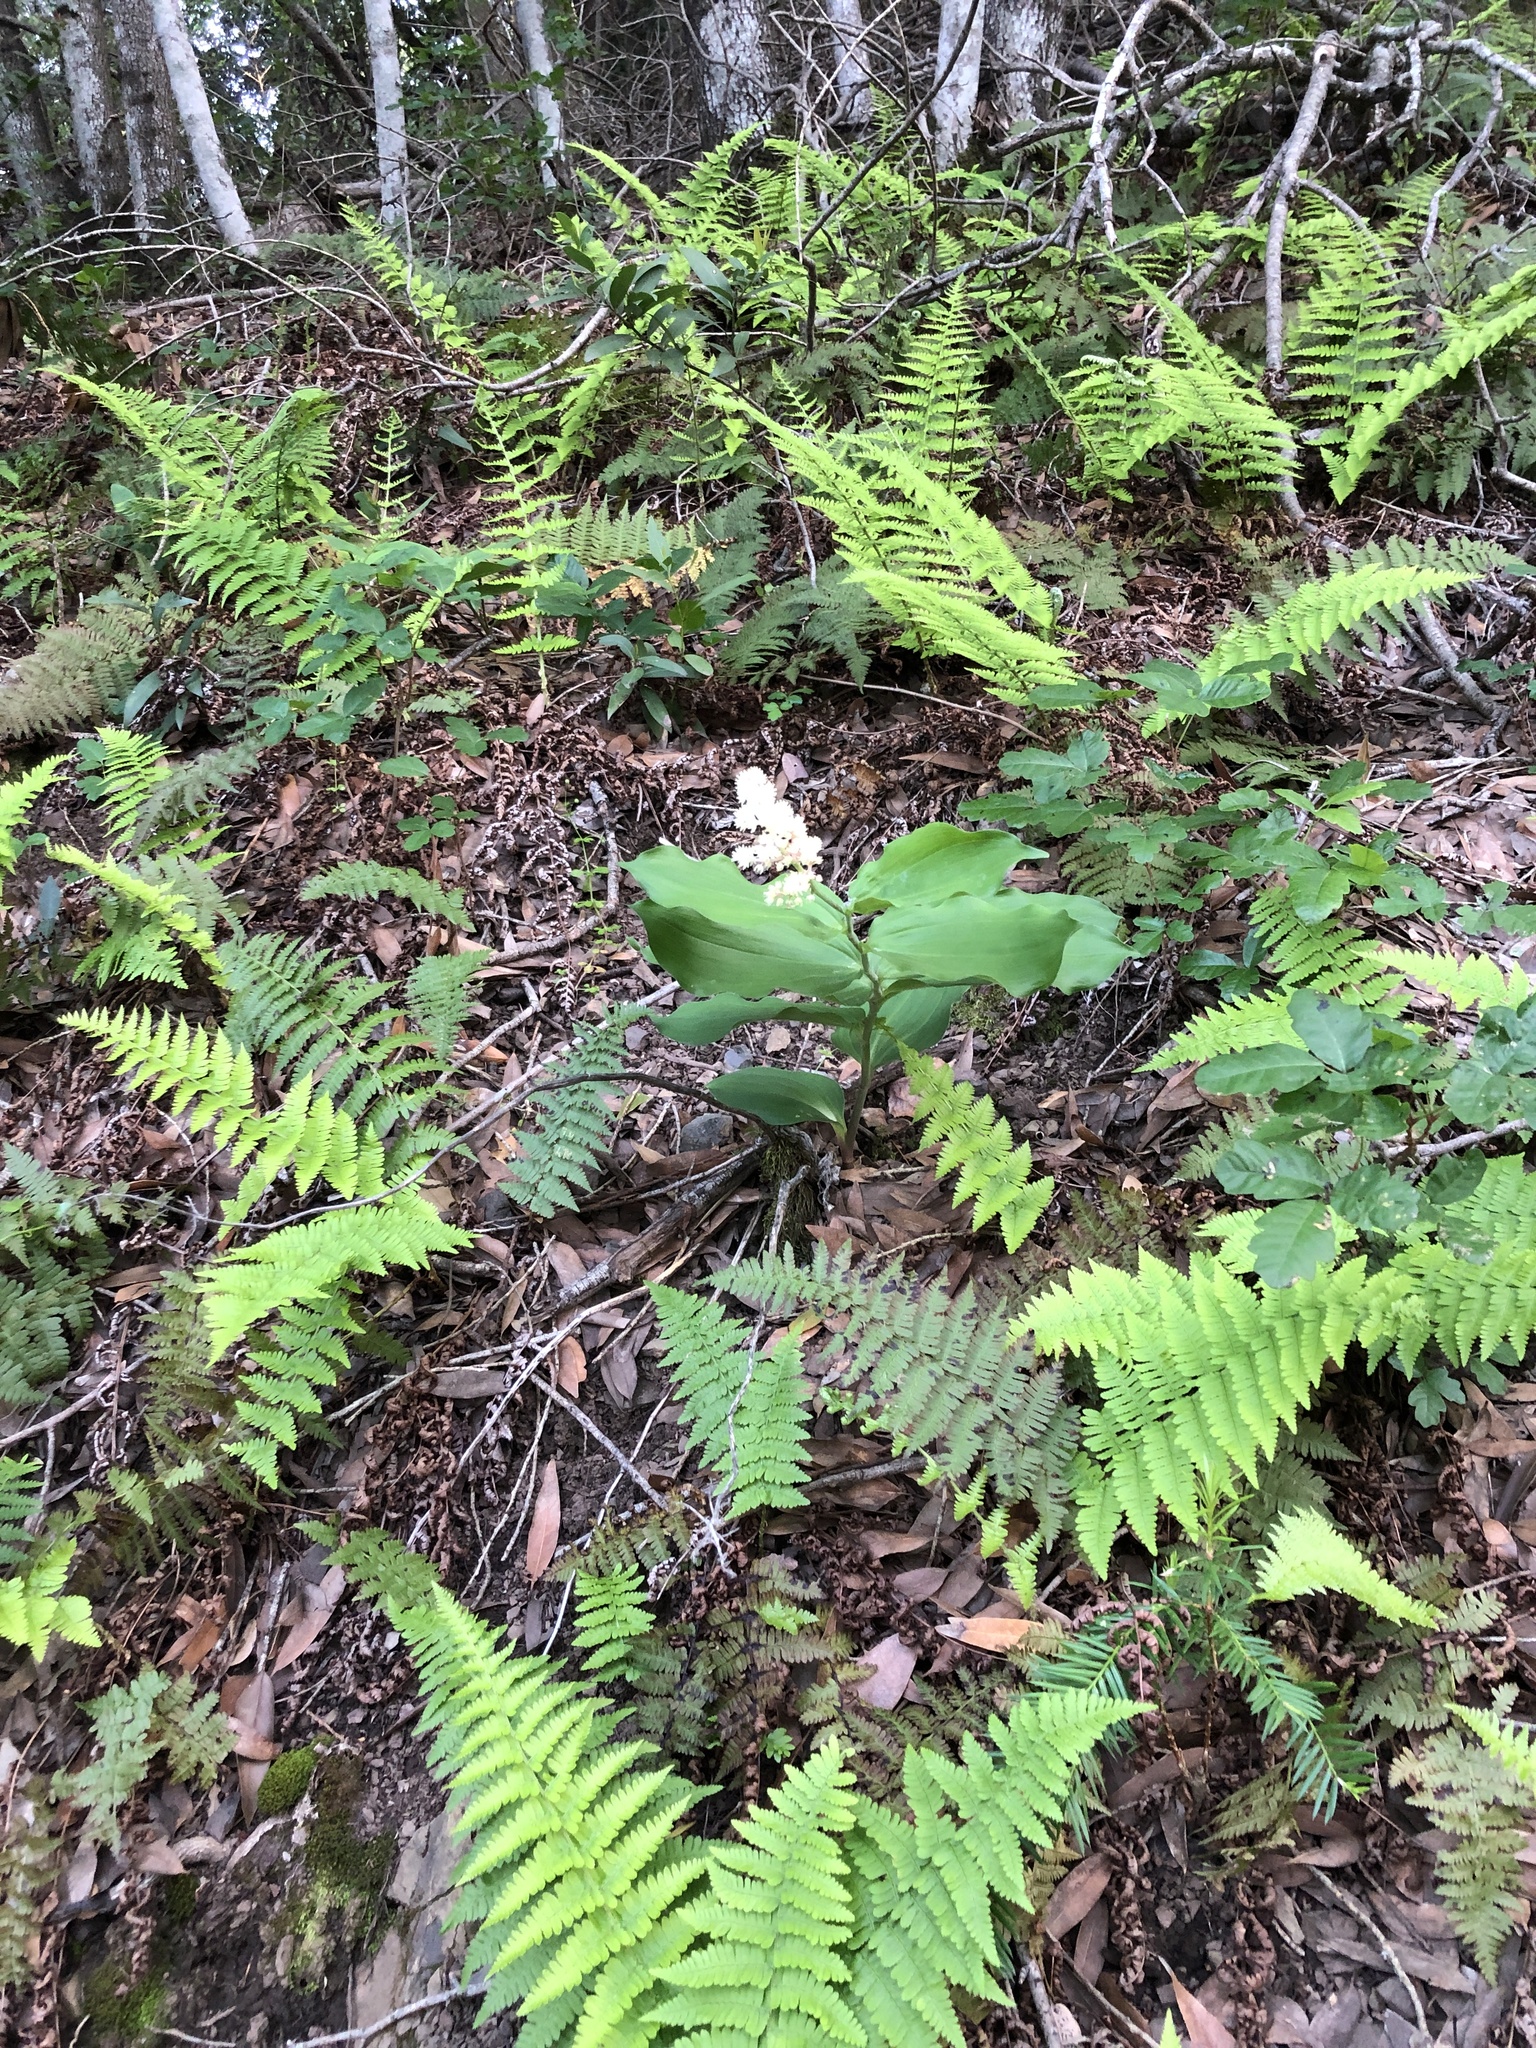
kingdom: Plantae
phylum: Tracheophyta
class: Liliopsida
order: Asparagales
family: Asparagaceae
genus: Maianthemum
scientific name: Maianthemum racemosum
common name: False spikenard
